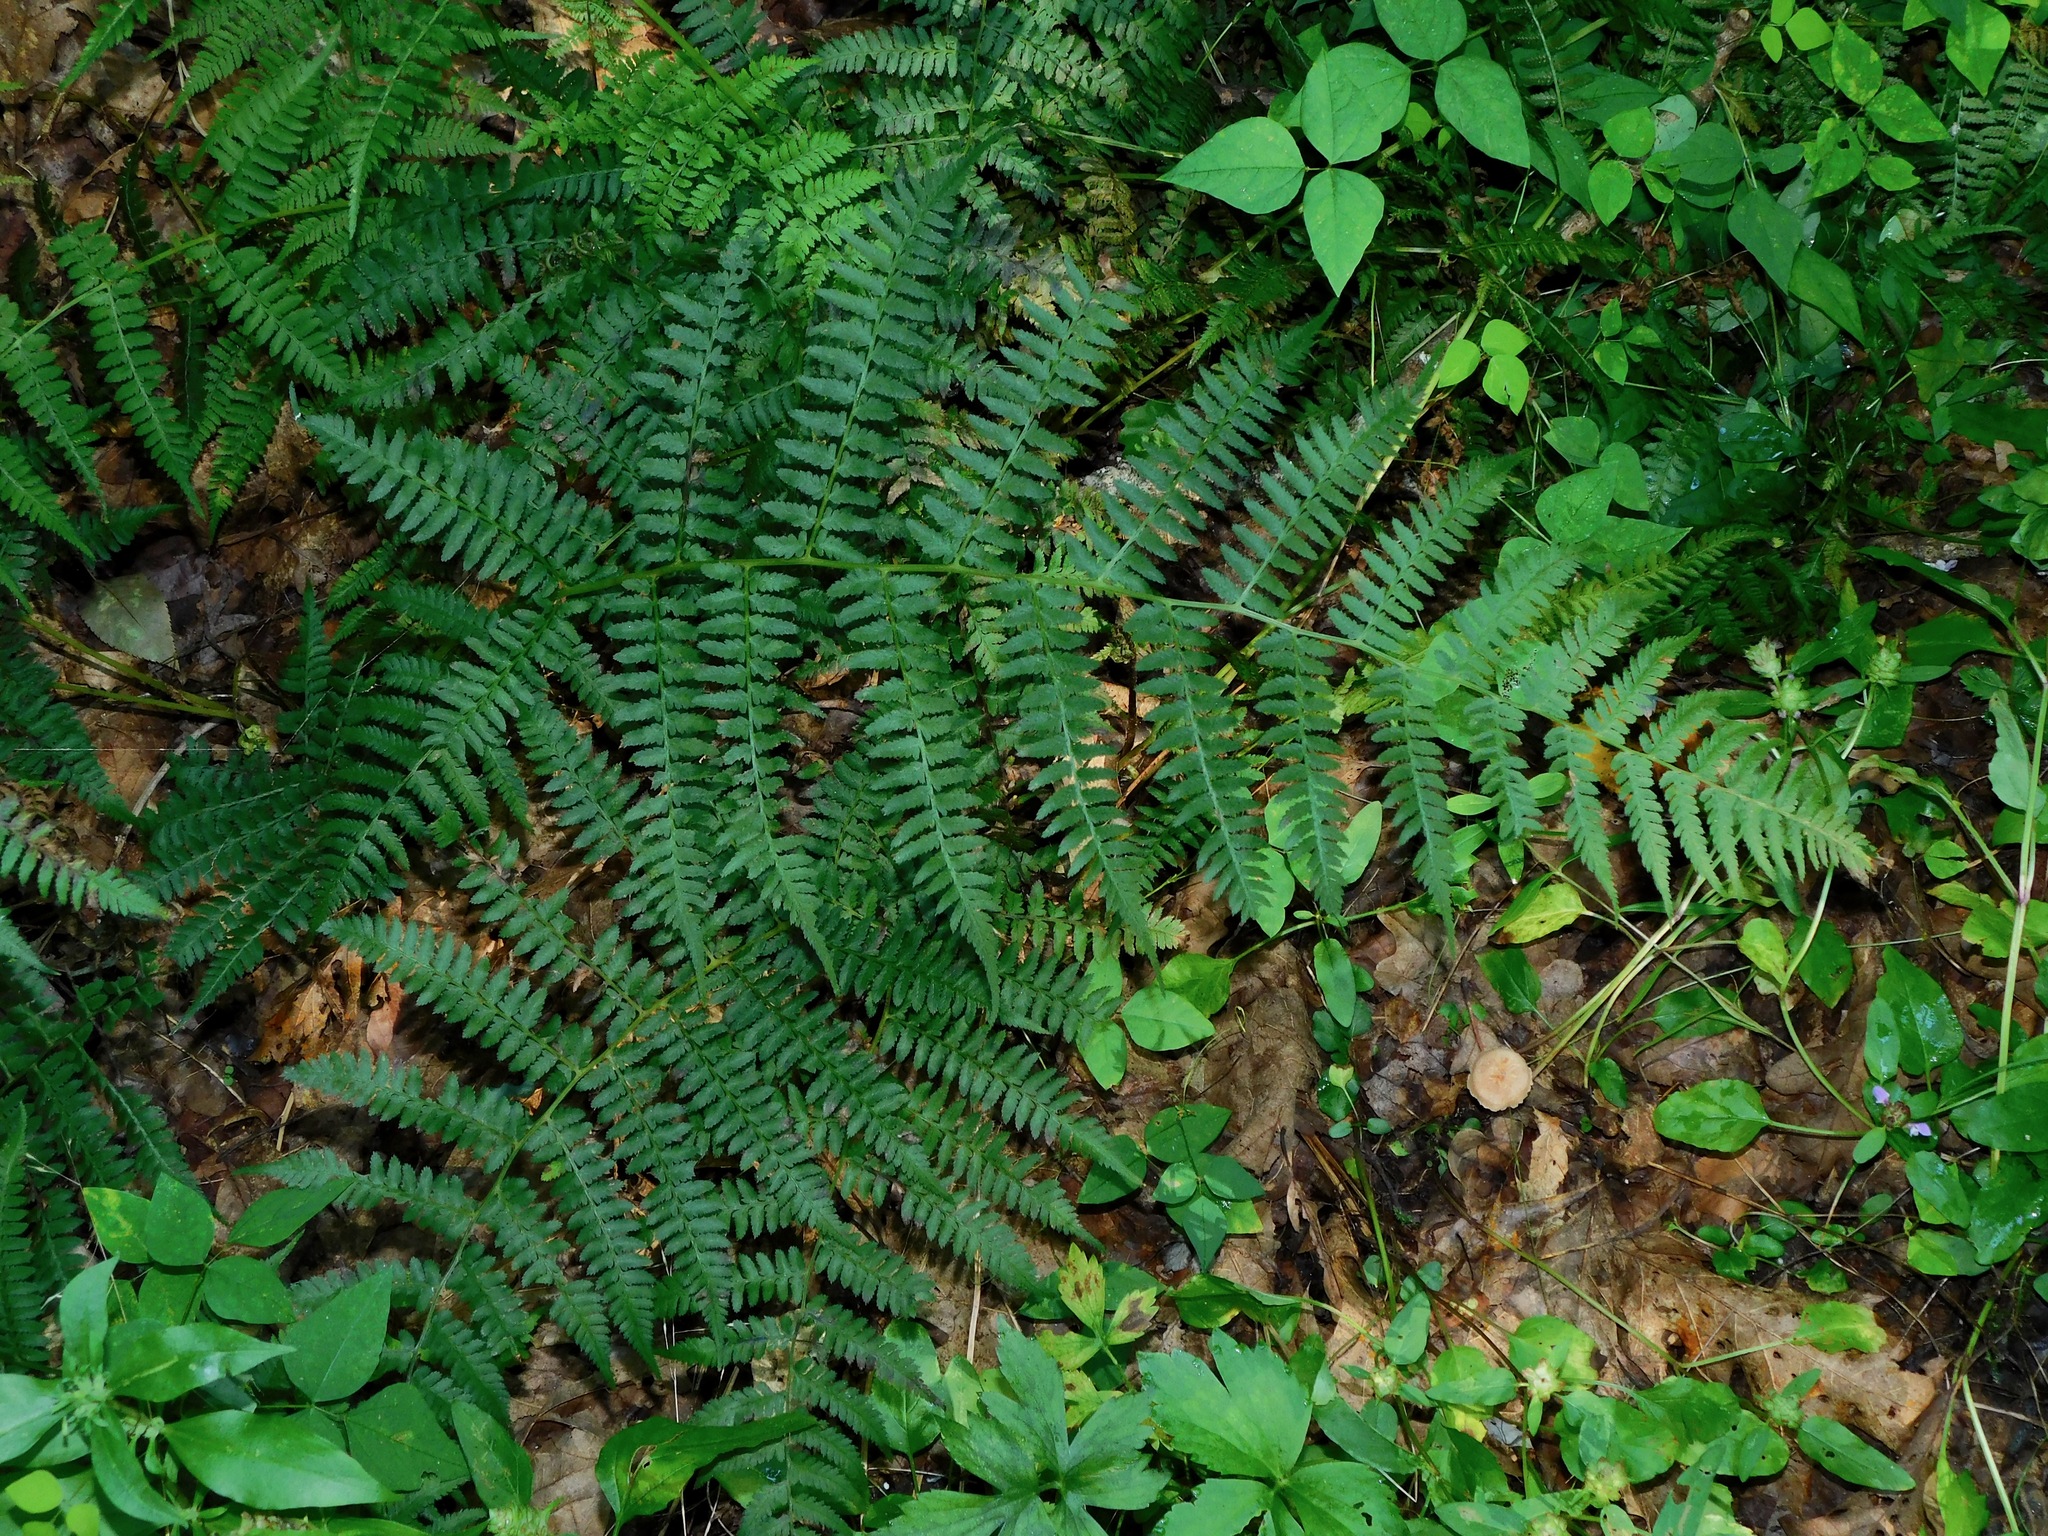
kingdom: Plantae
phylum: Tracheophyta
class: Polypodiopsida
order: Polypodiales
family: Athyriaceae
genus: Athyrium
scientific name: Athyrium asplenioides
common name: Southern lady fern
